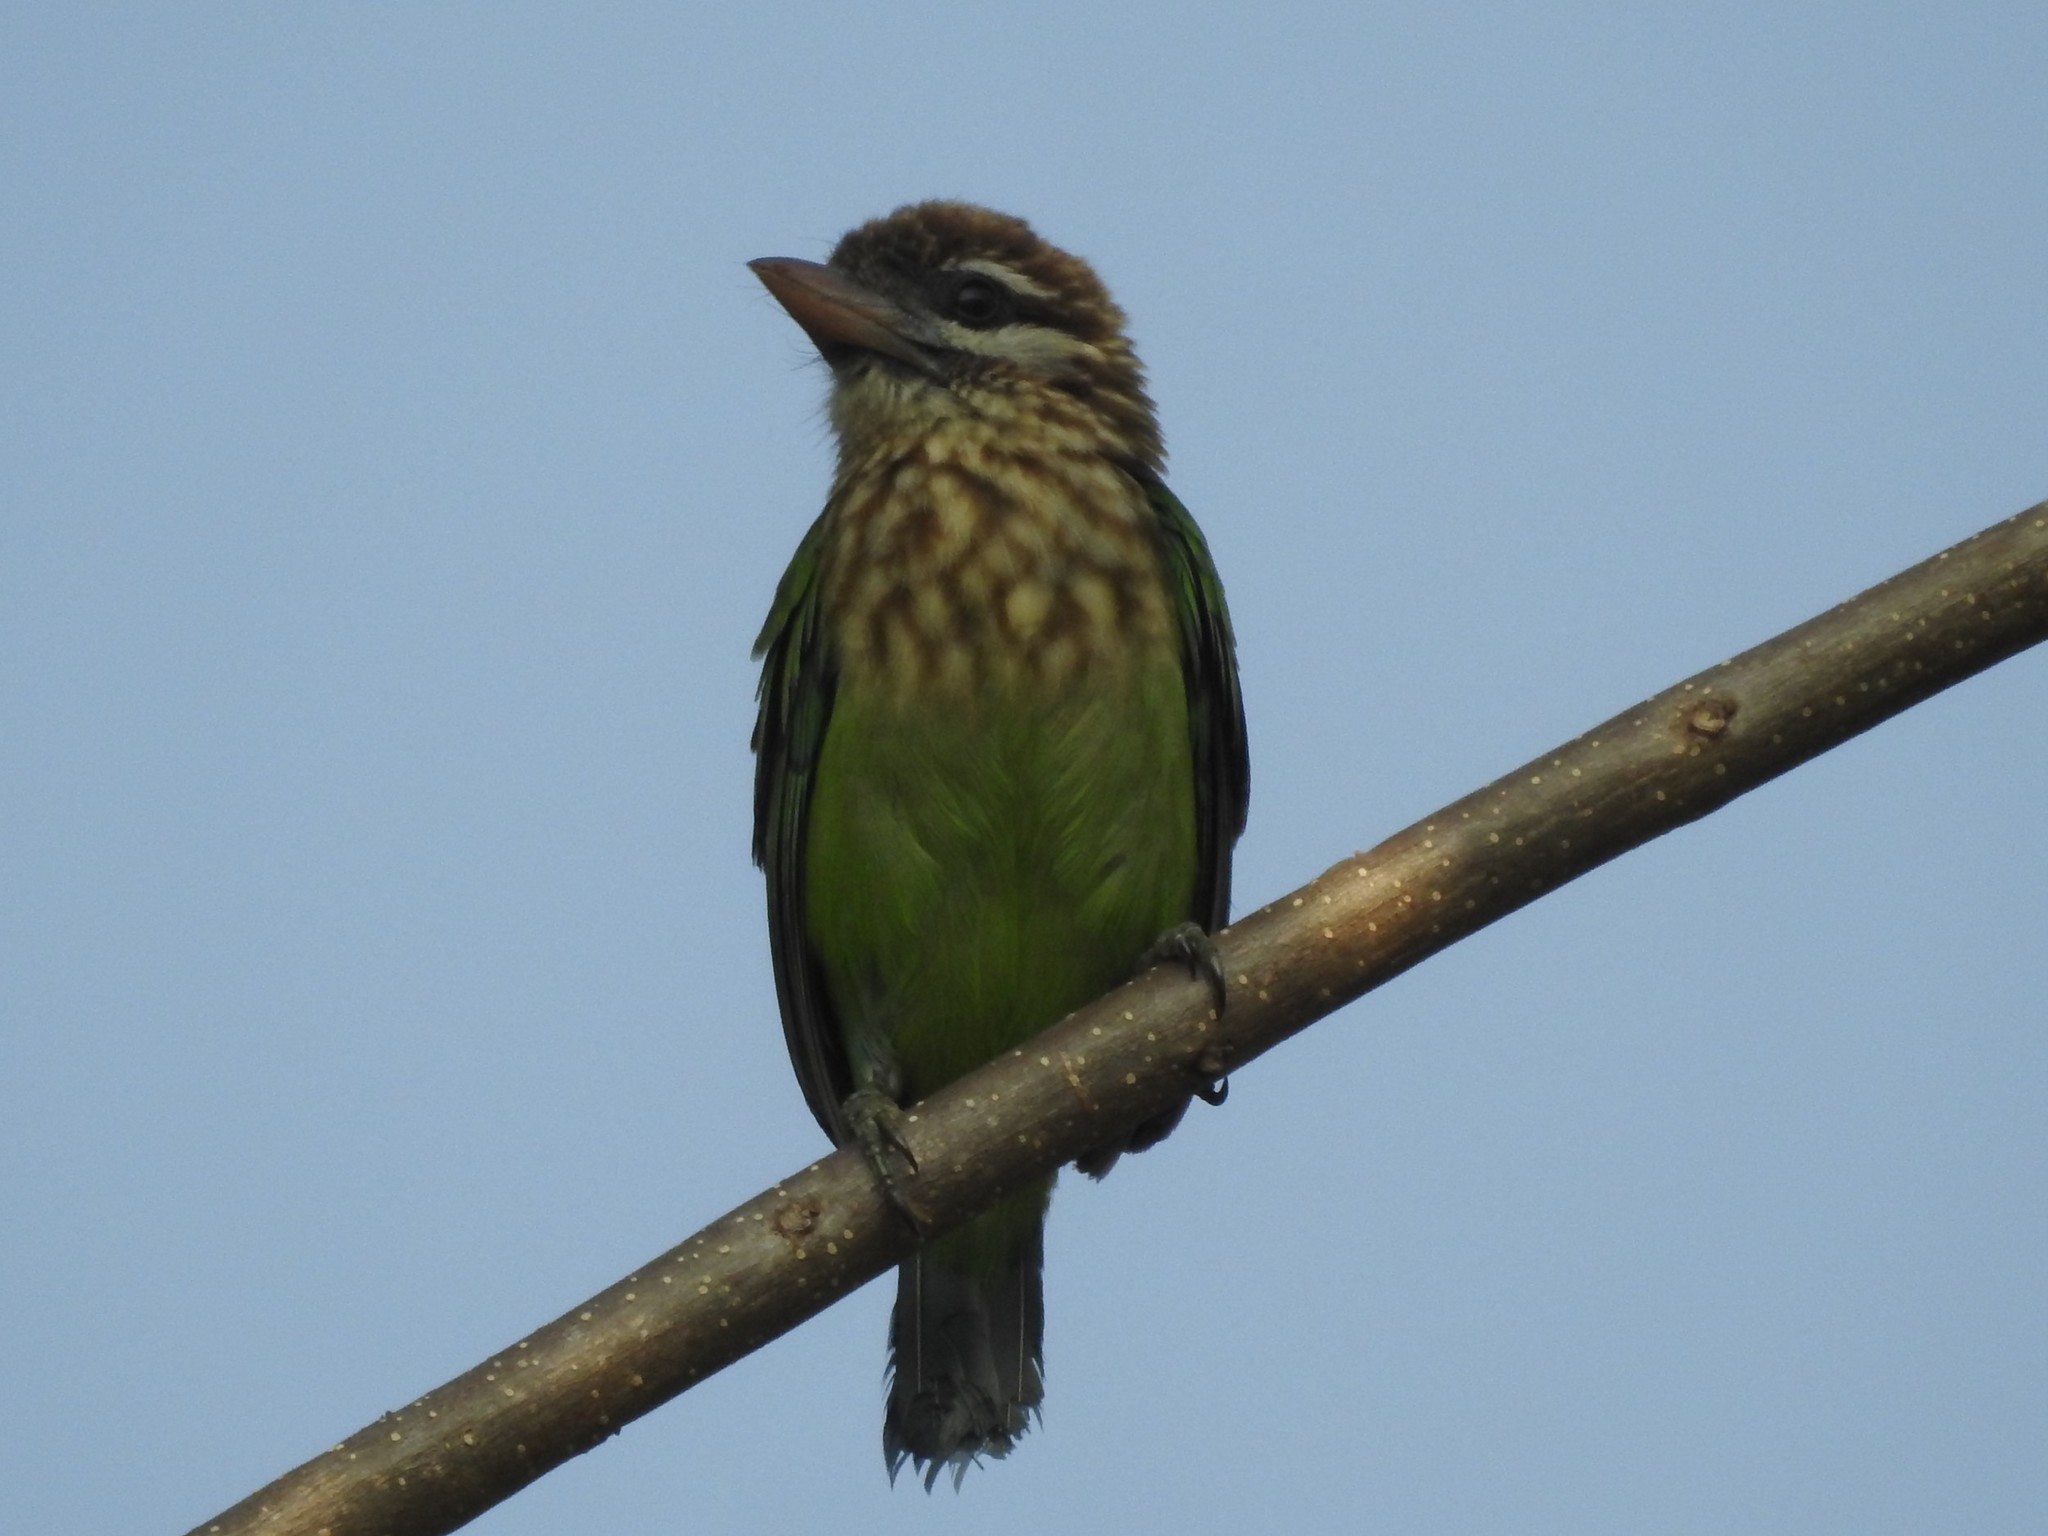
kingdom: Animalia
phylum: Chordata
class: Aves
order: Piciformes
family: Megalaimidae
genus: Psilopogon
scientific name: Psilopogon viridis
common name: White-cheeked barbet
